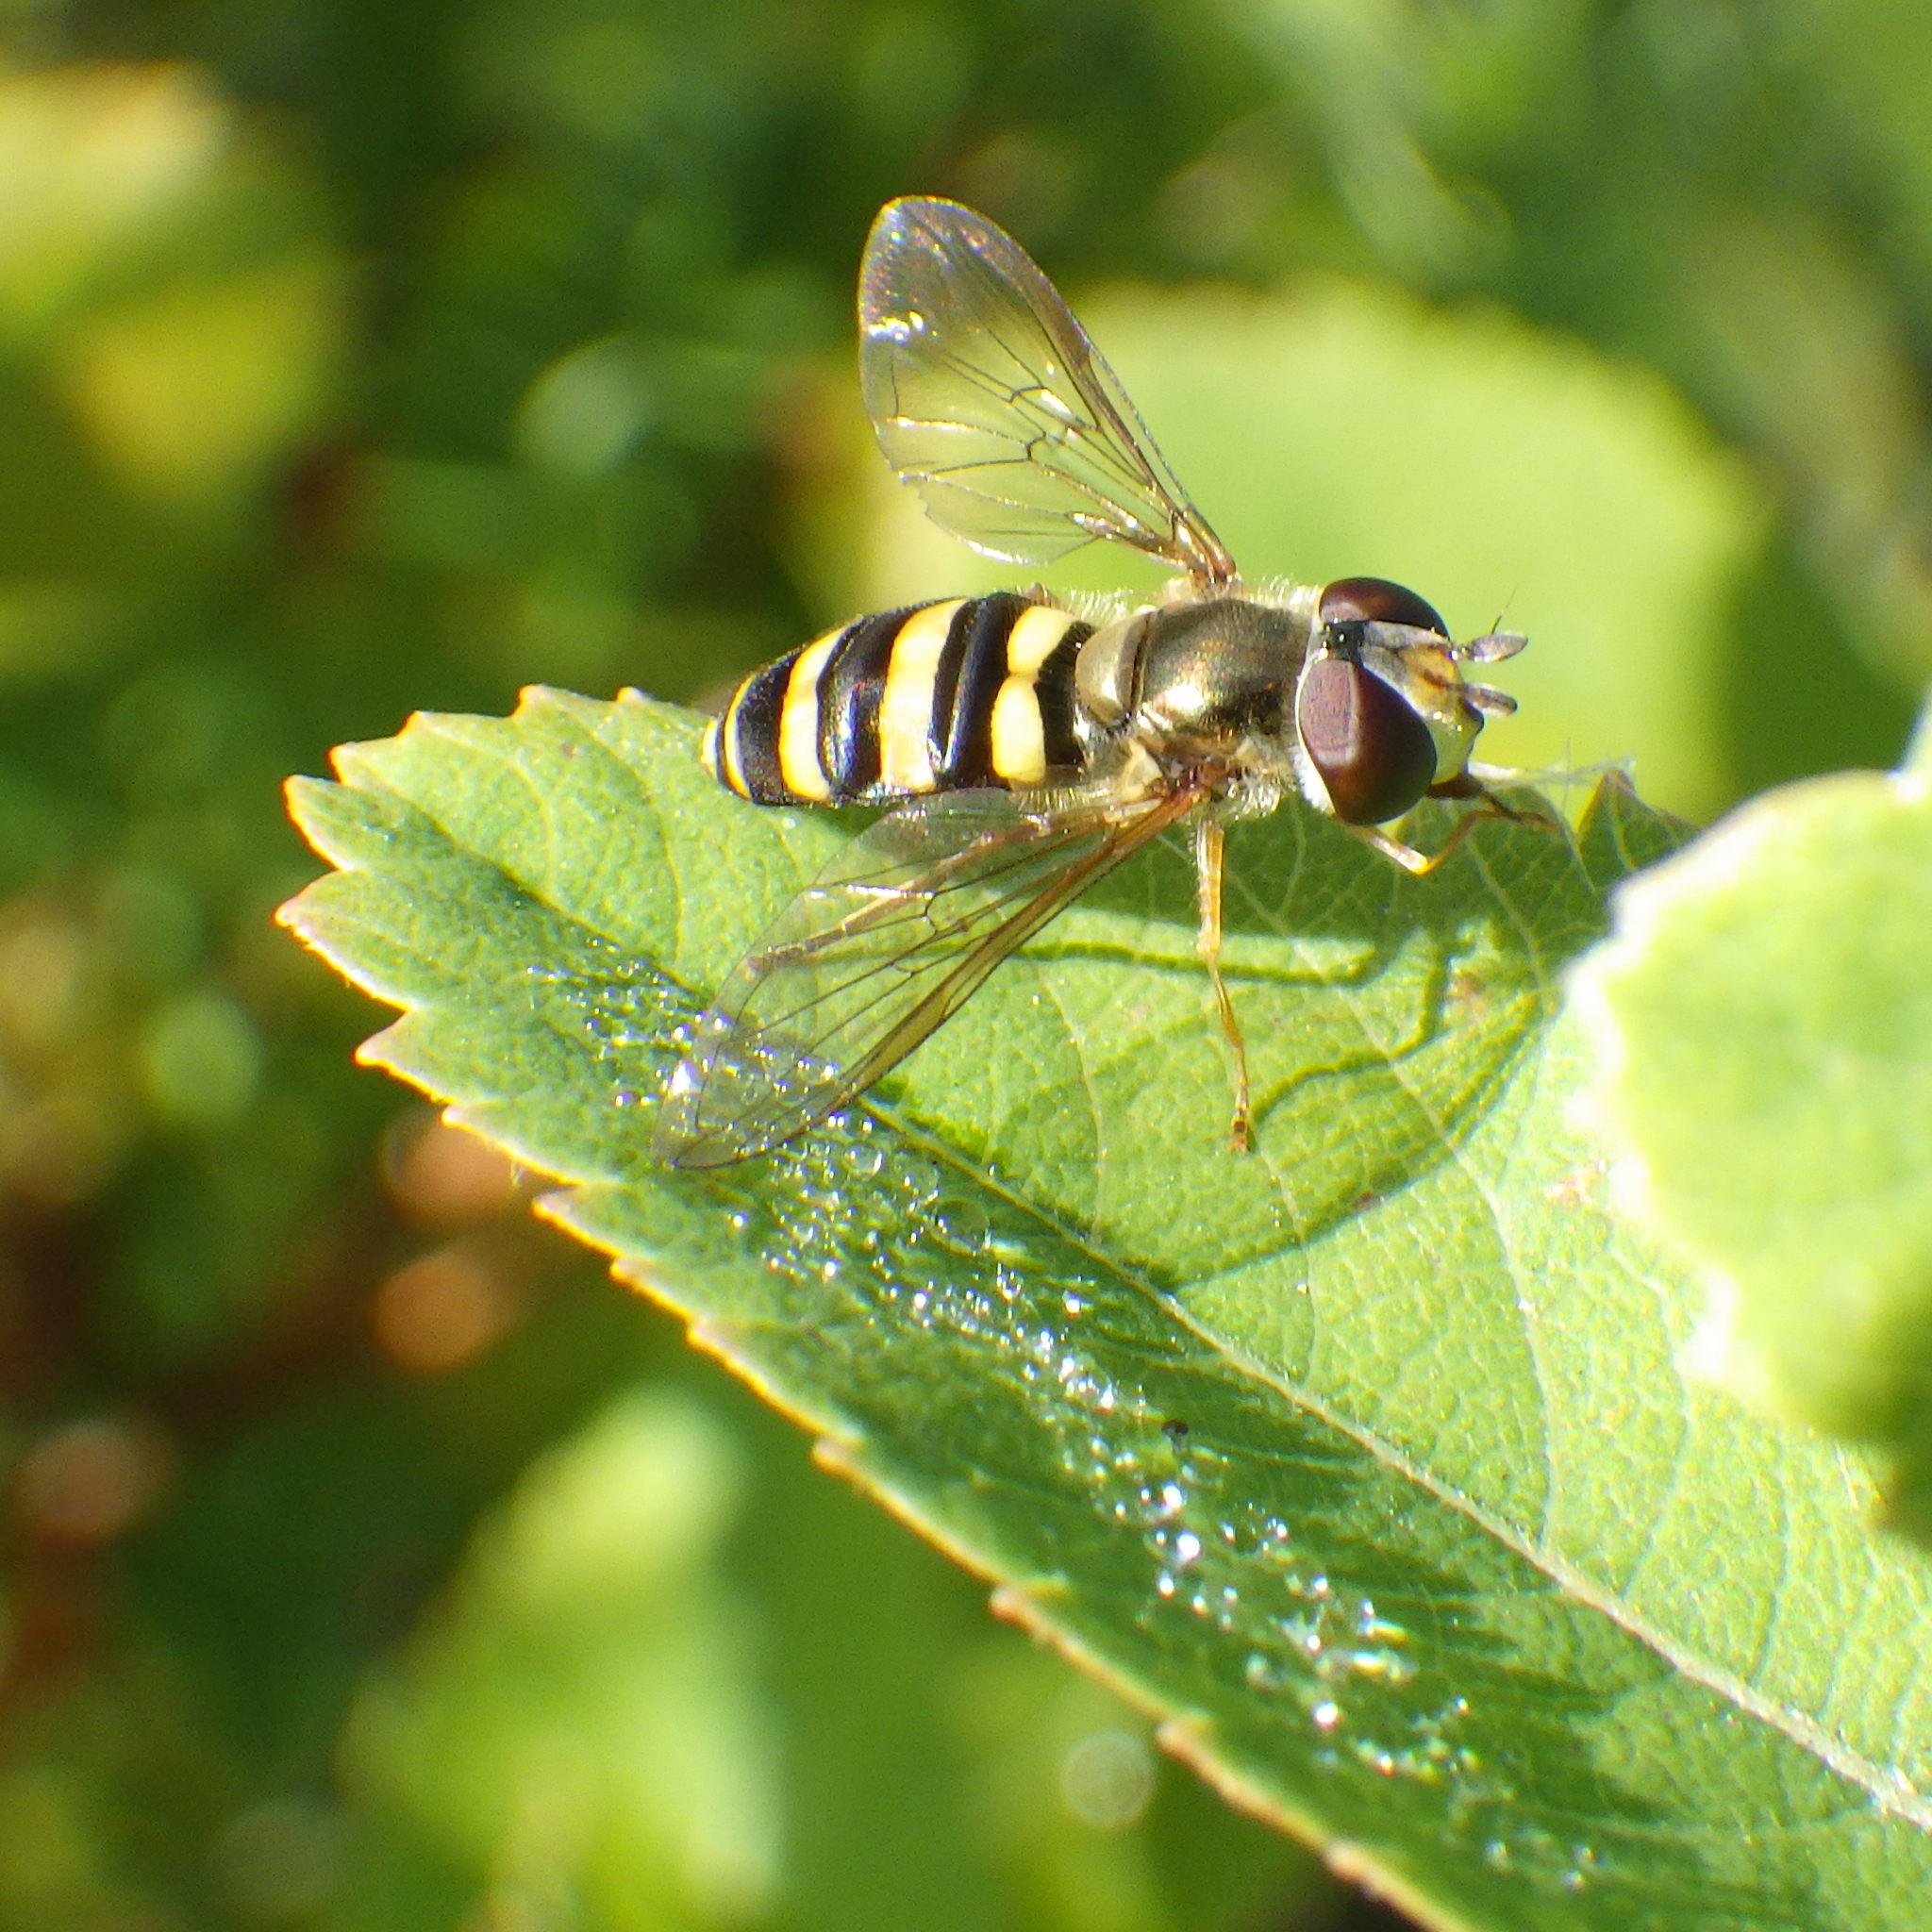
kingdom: Animalia
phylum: Arthropoda
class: Insecta
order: Diptera
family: Syrphidae
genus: Eupeodes
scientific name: Eupeodes
